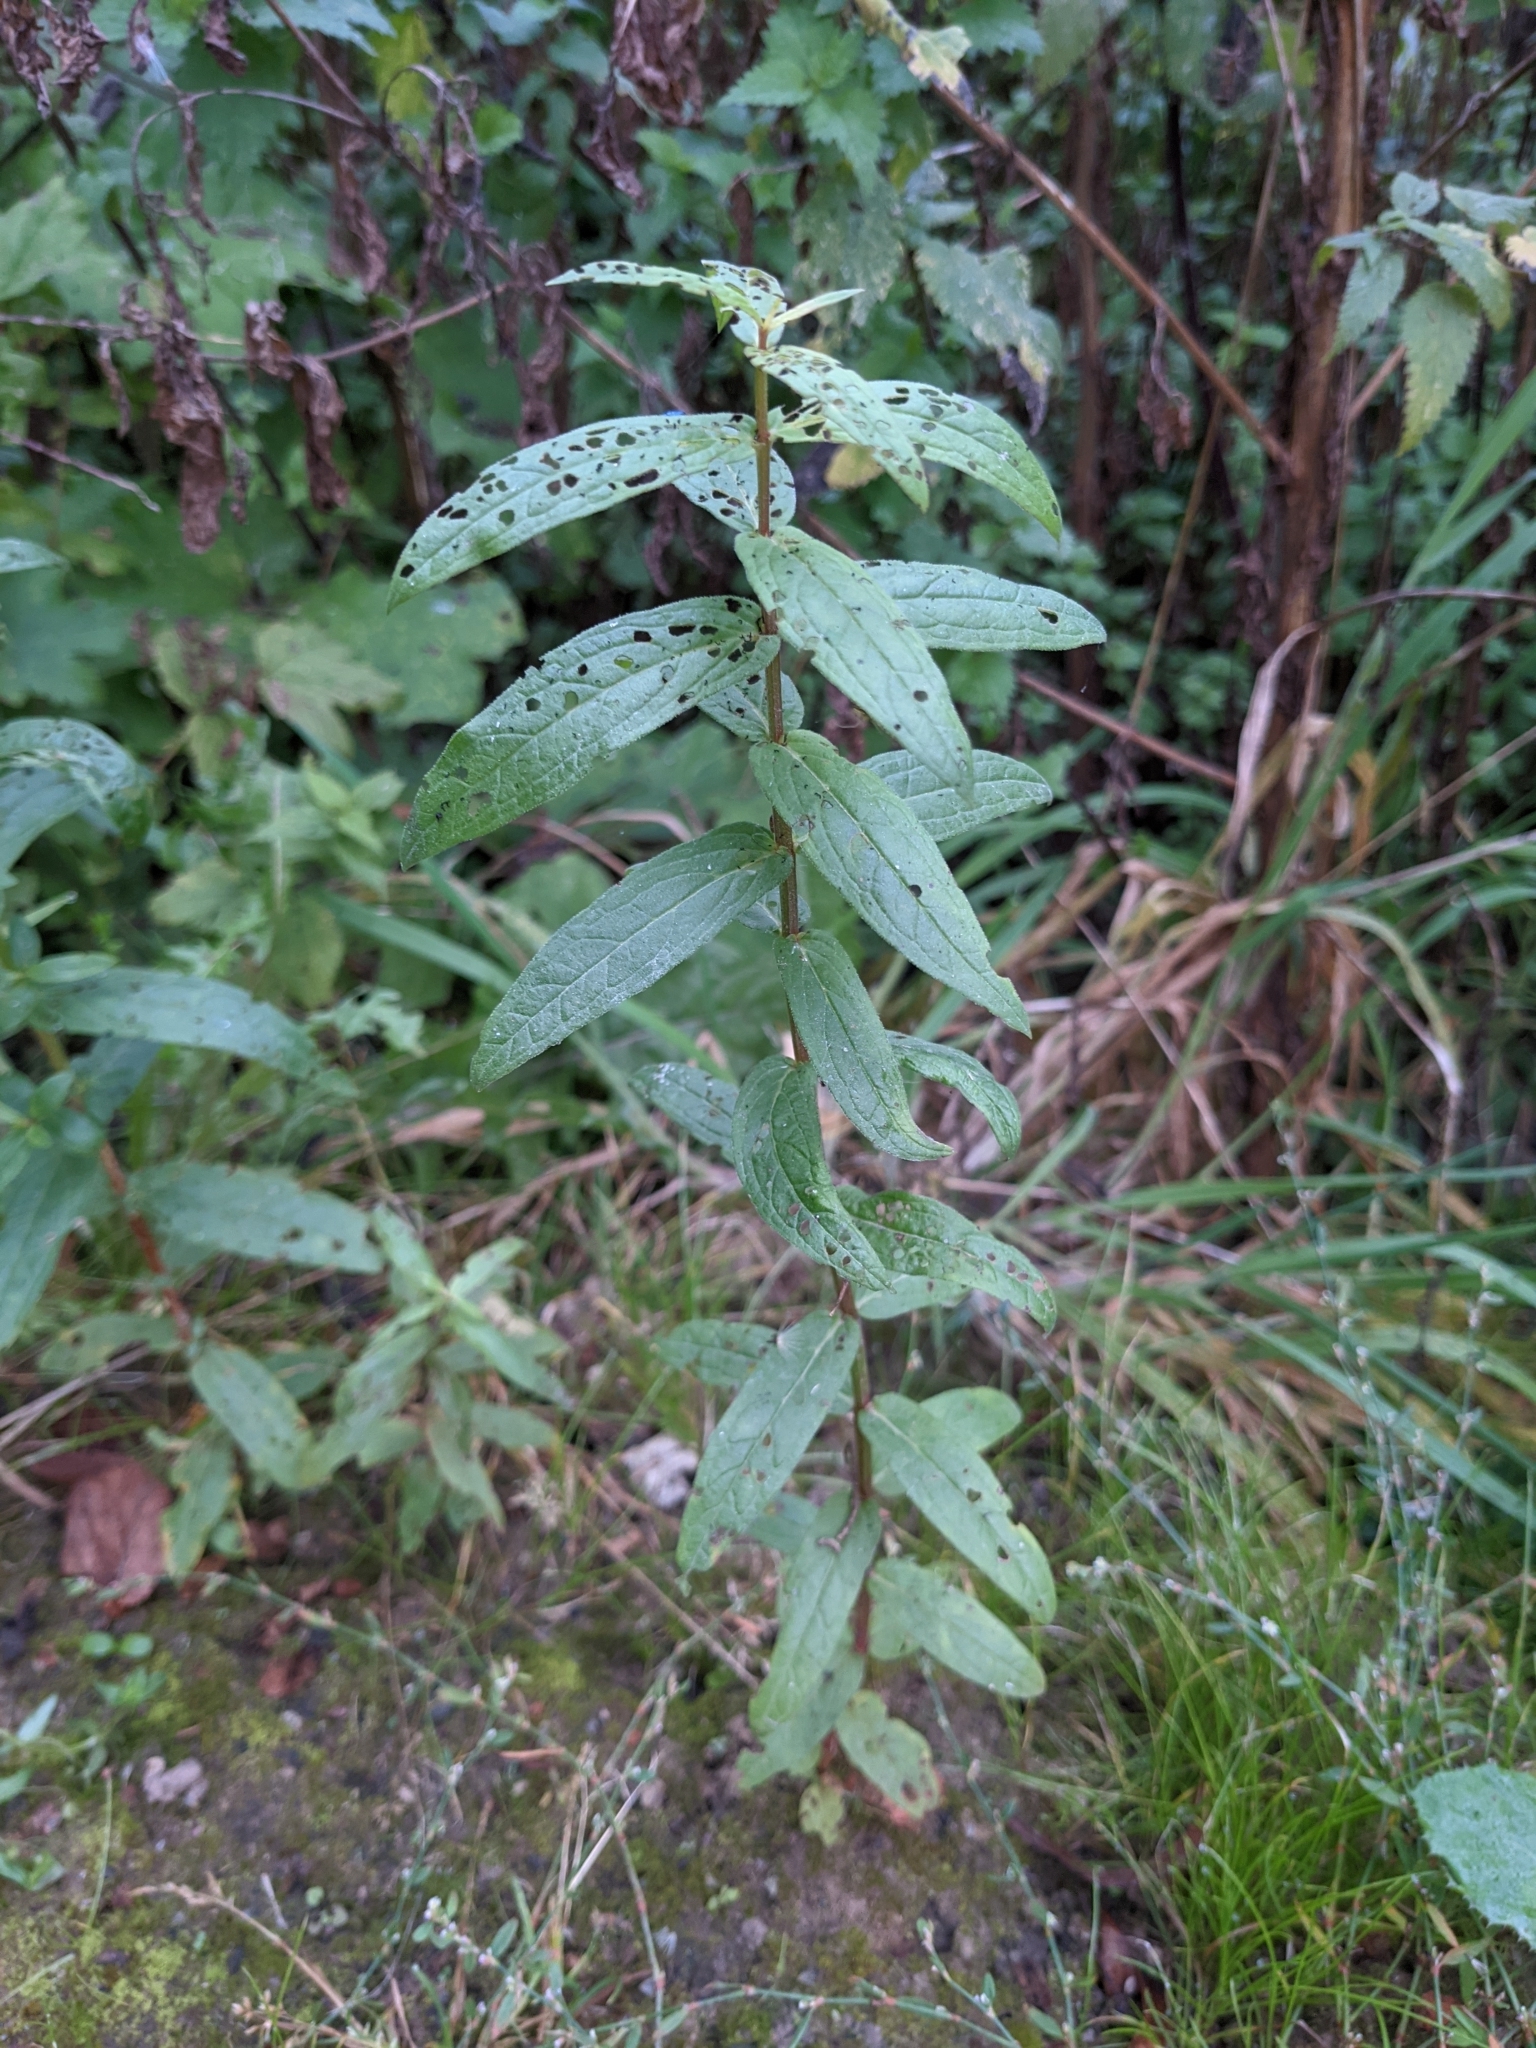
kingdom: Plantae
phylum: Tracheophyta
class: Magnoliopsida
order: Myrtales
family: Lythraceae
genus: Lythrum
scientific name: Lythrum salicaria
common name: Purple loosestrife
